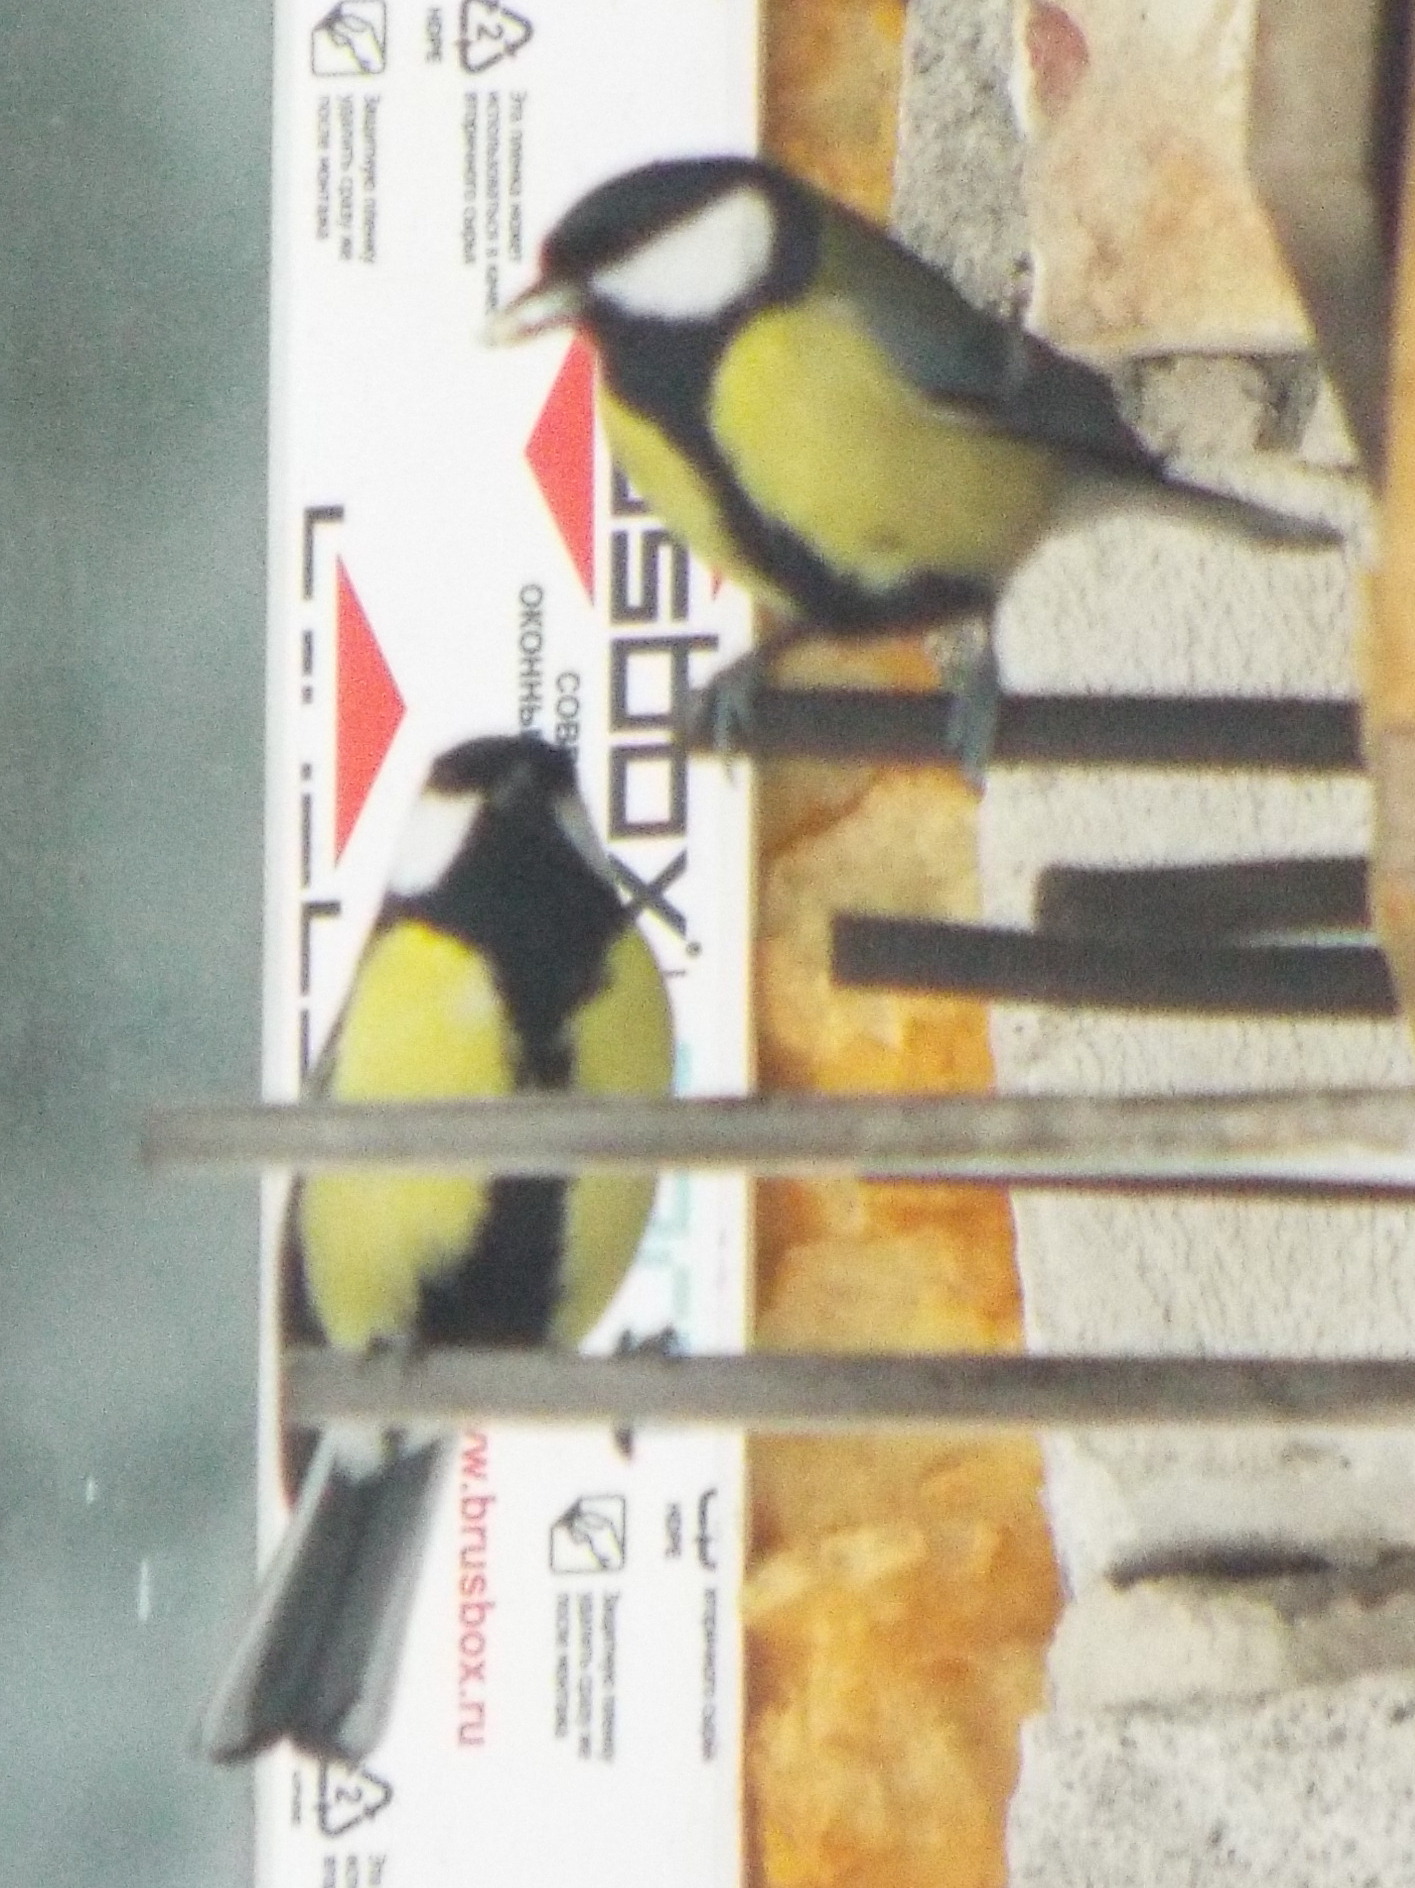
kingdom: Animalia
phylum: Chordata
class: Aves
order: Passeriformes
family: Paridae
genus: Parus
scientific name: Parus major
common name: Great tit
